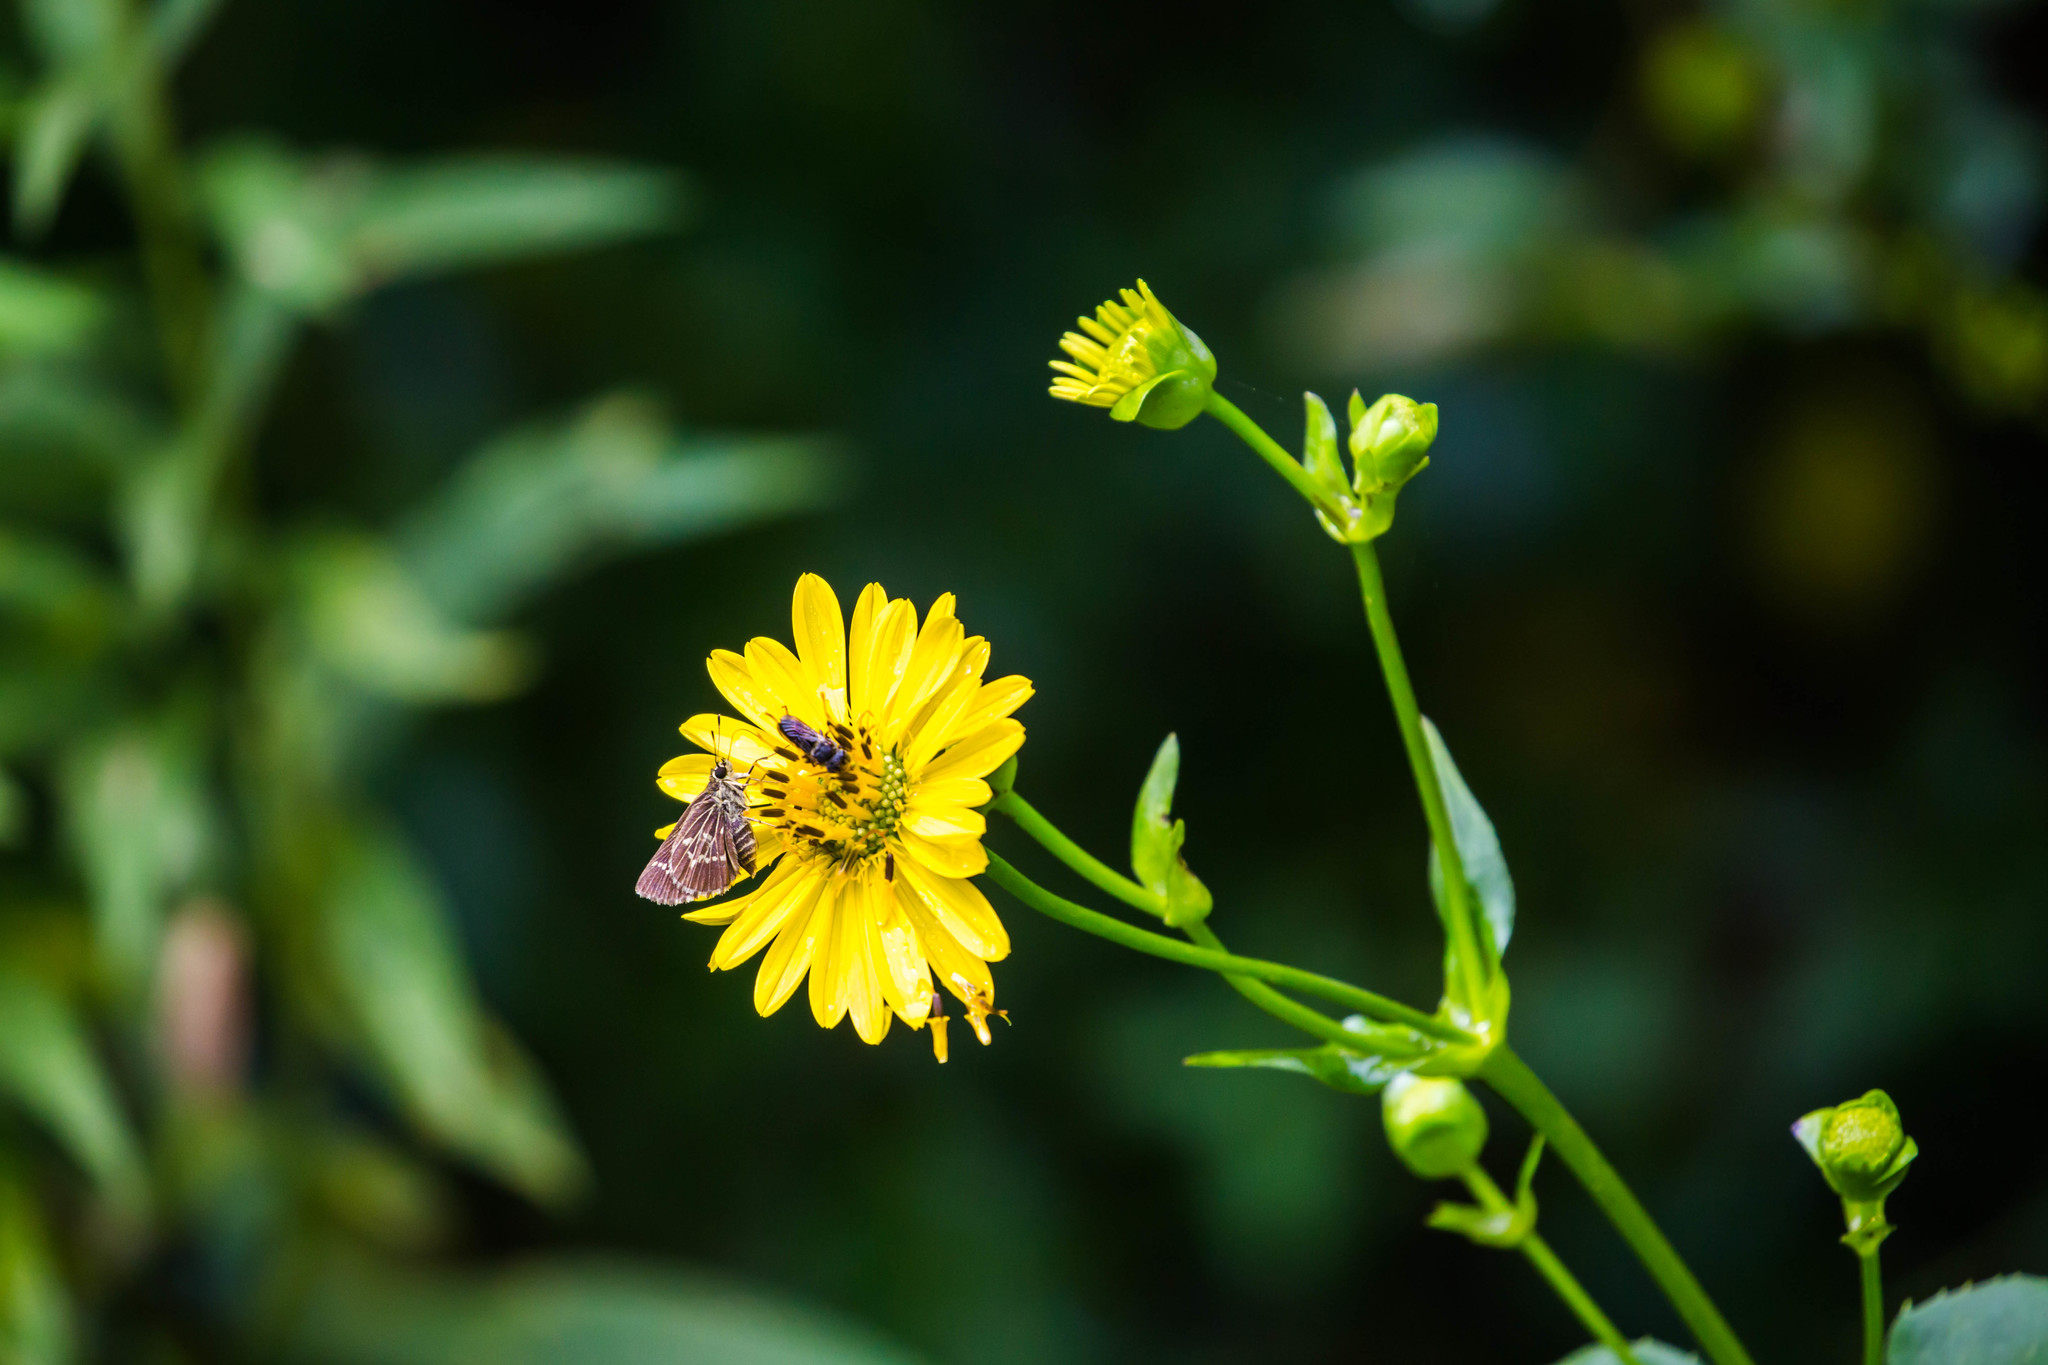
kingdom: Animalia
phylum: Arthropoda
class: Insecta
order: Lepidoptera
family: Hesperiidae
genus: Mastor
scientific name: Mastor aesculapius
